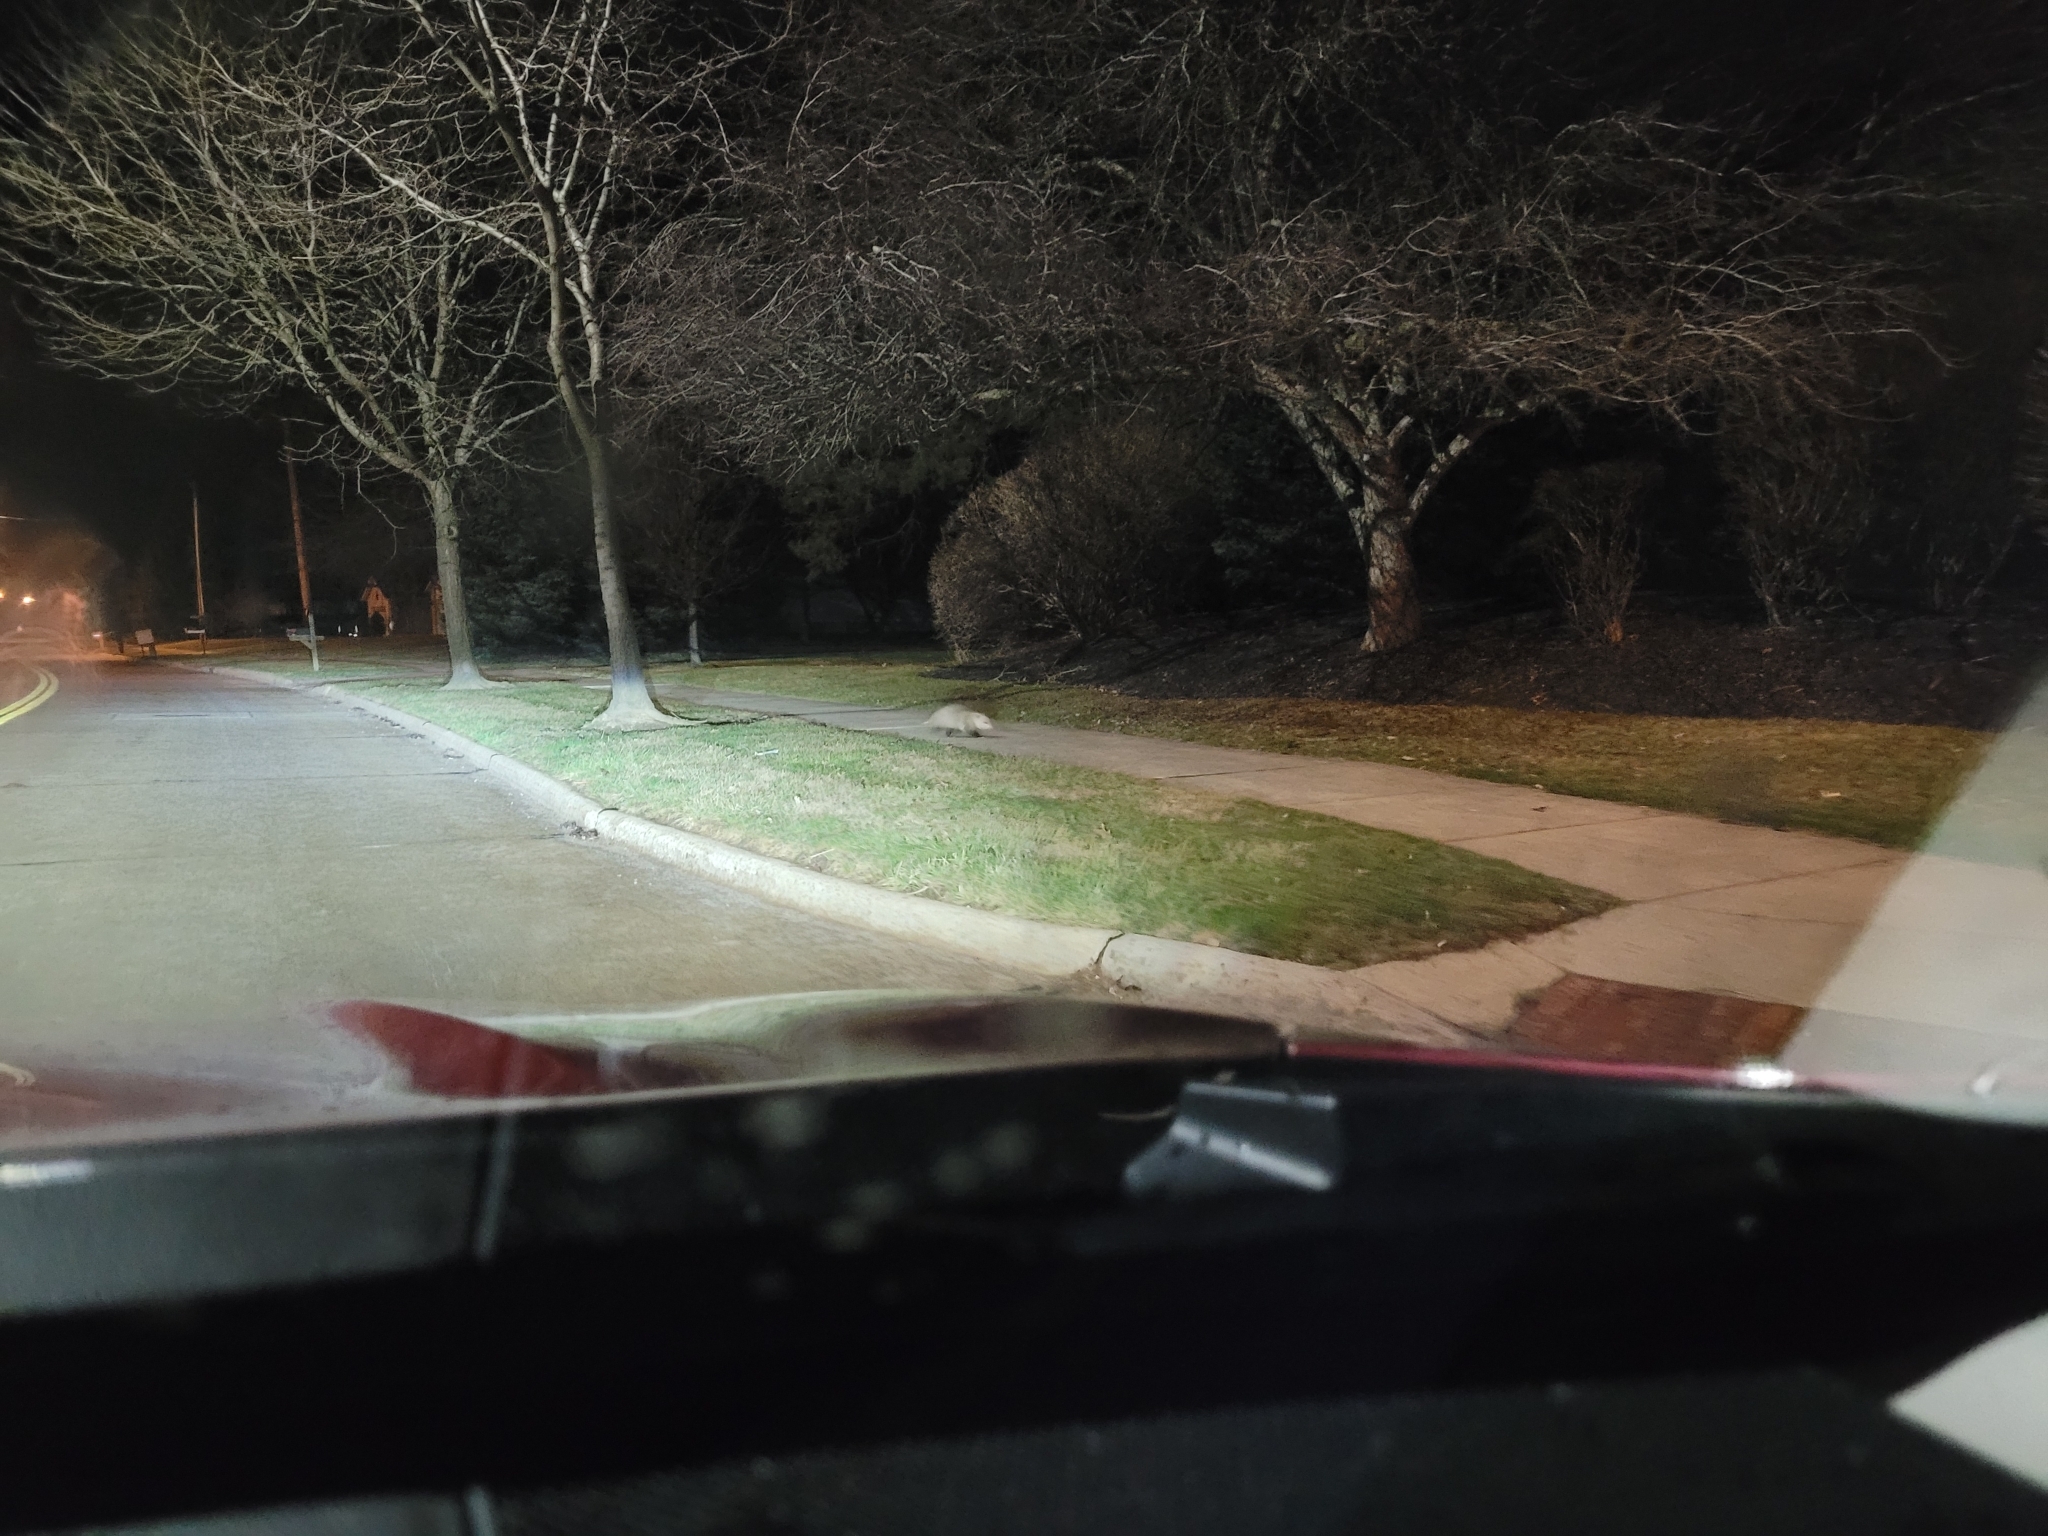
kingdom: Animalia
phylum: Chordata
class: Mammalia
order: Didelphimorphia
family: Didelphidae
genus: Didelphis
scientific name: Didelphis virginiana
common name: Virginia opossum
